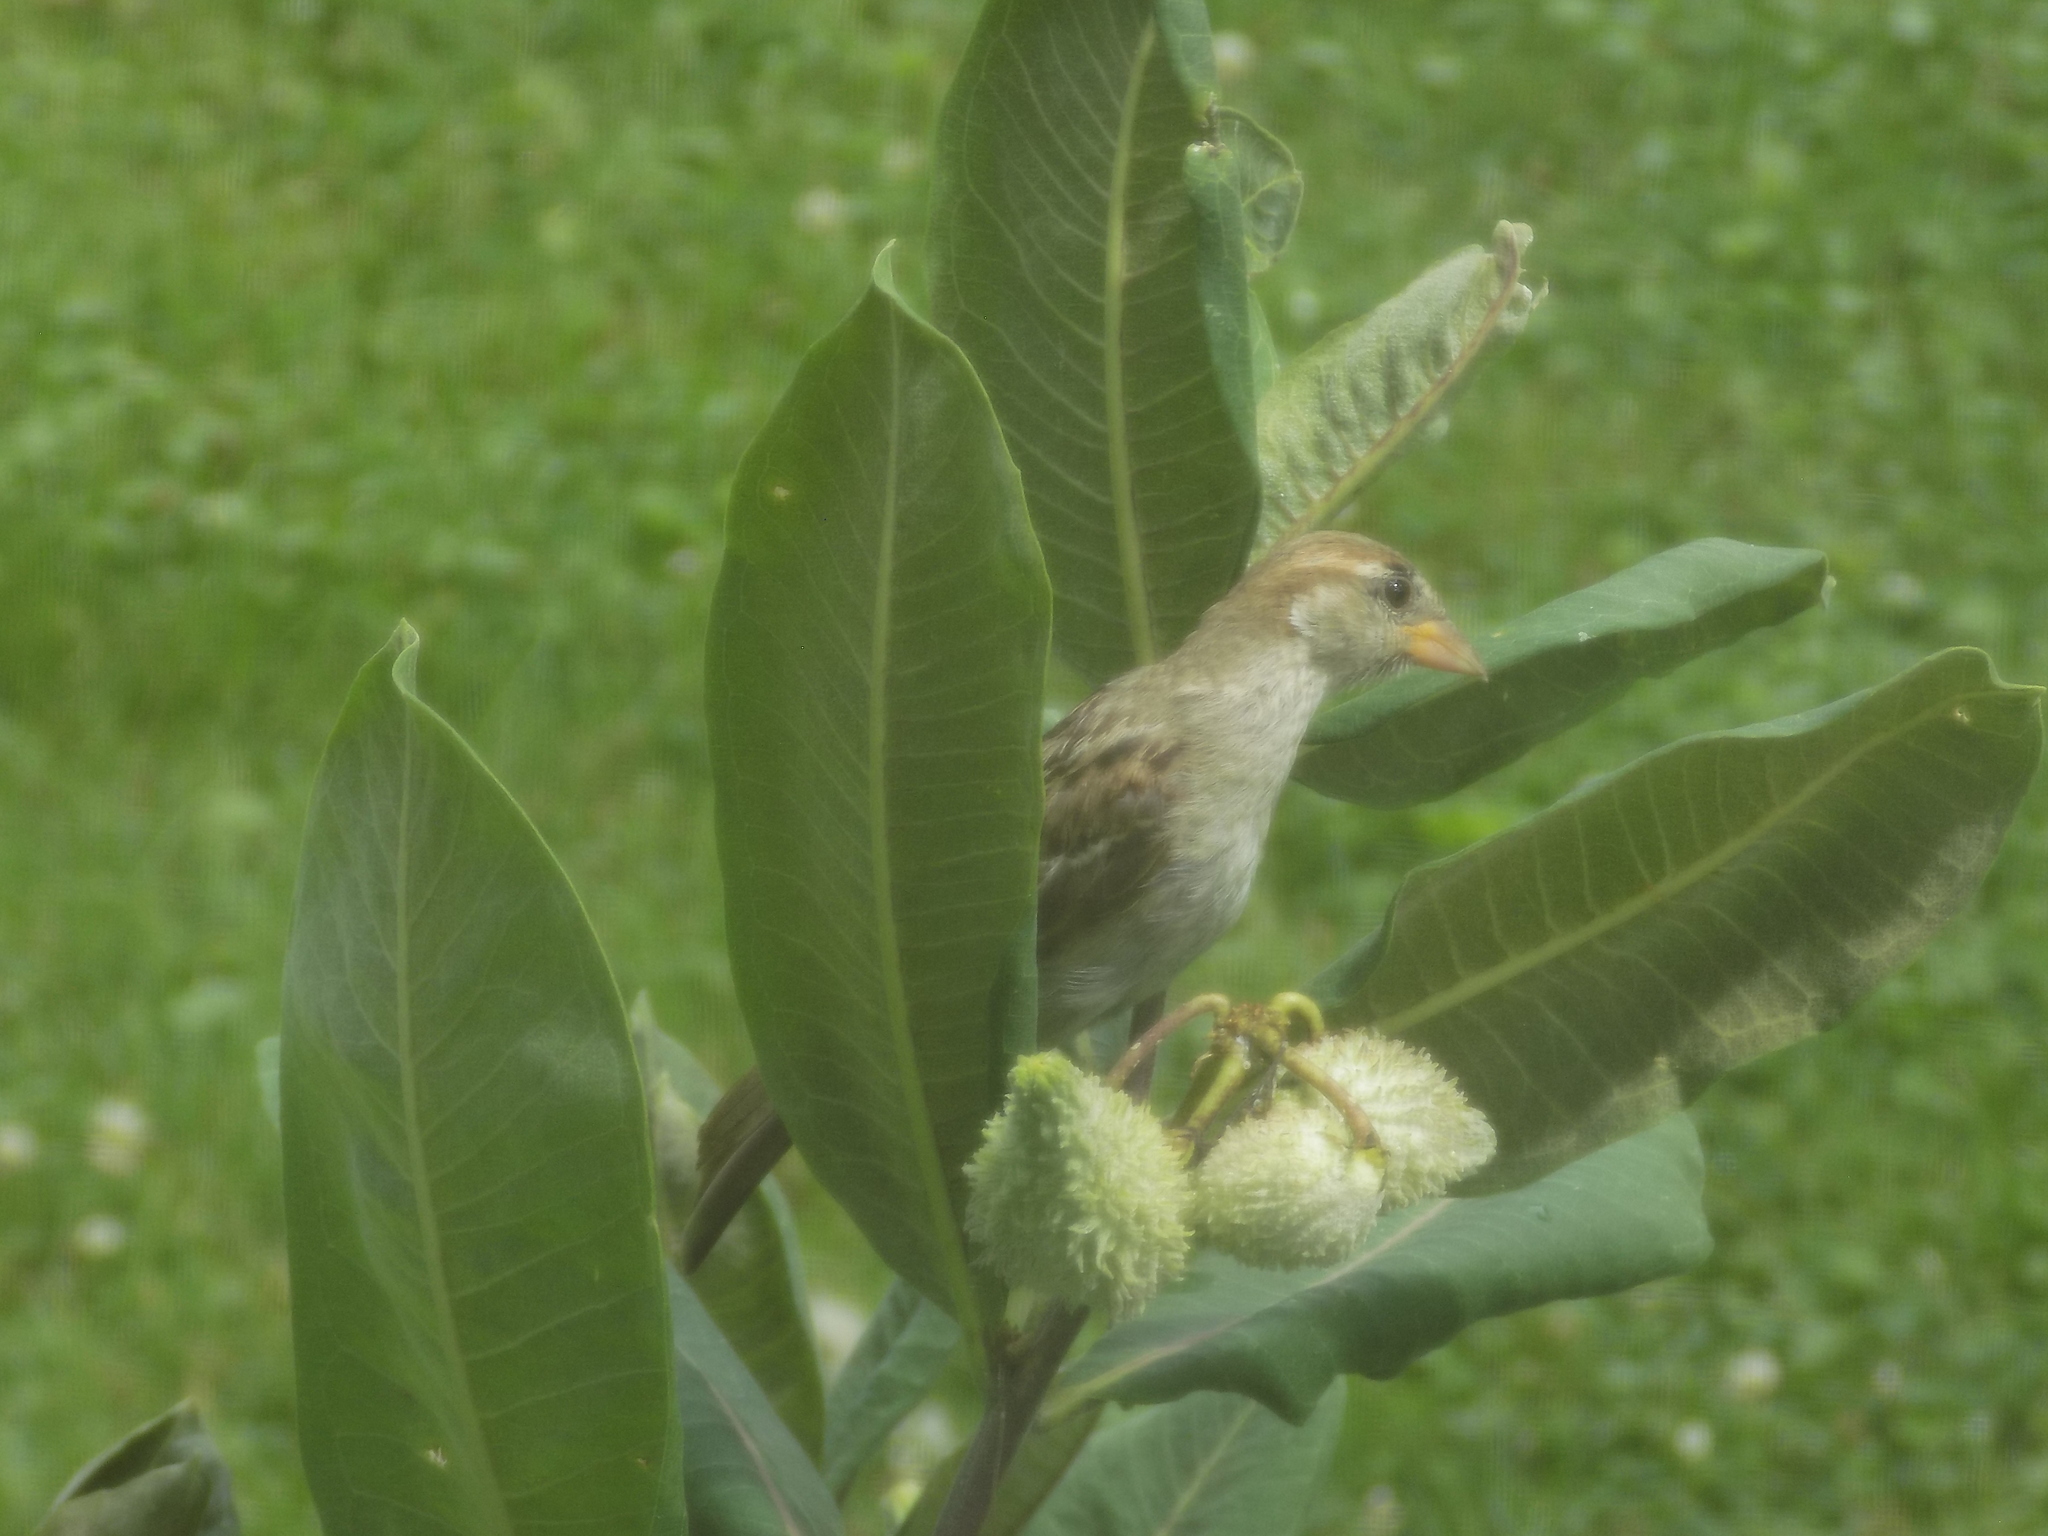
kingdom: Animalia
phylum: Chordata
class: Aves
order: Passeriformes
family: Passeridae
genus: Passer
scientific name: Passer domesticus
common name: House sparrow
